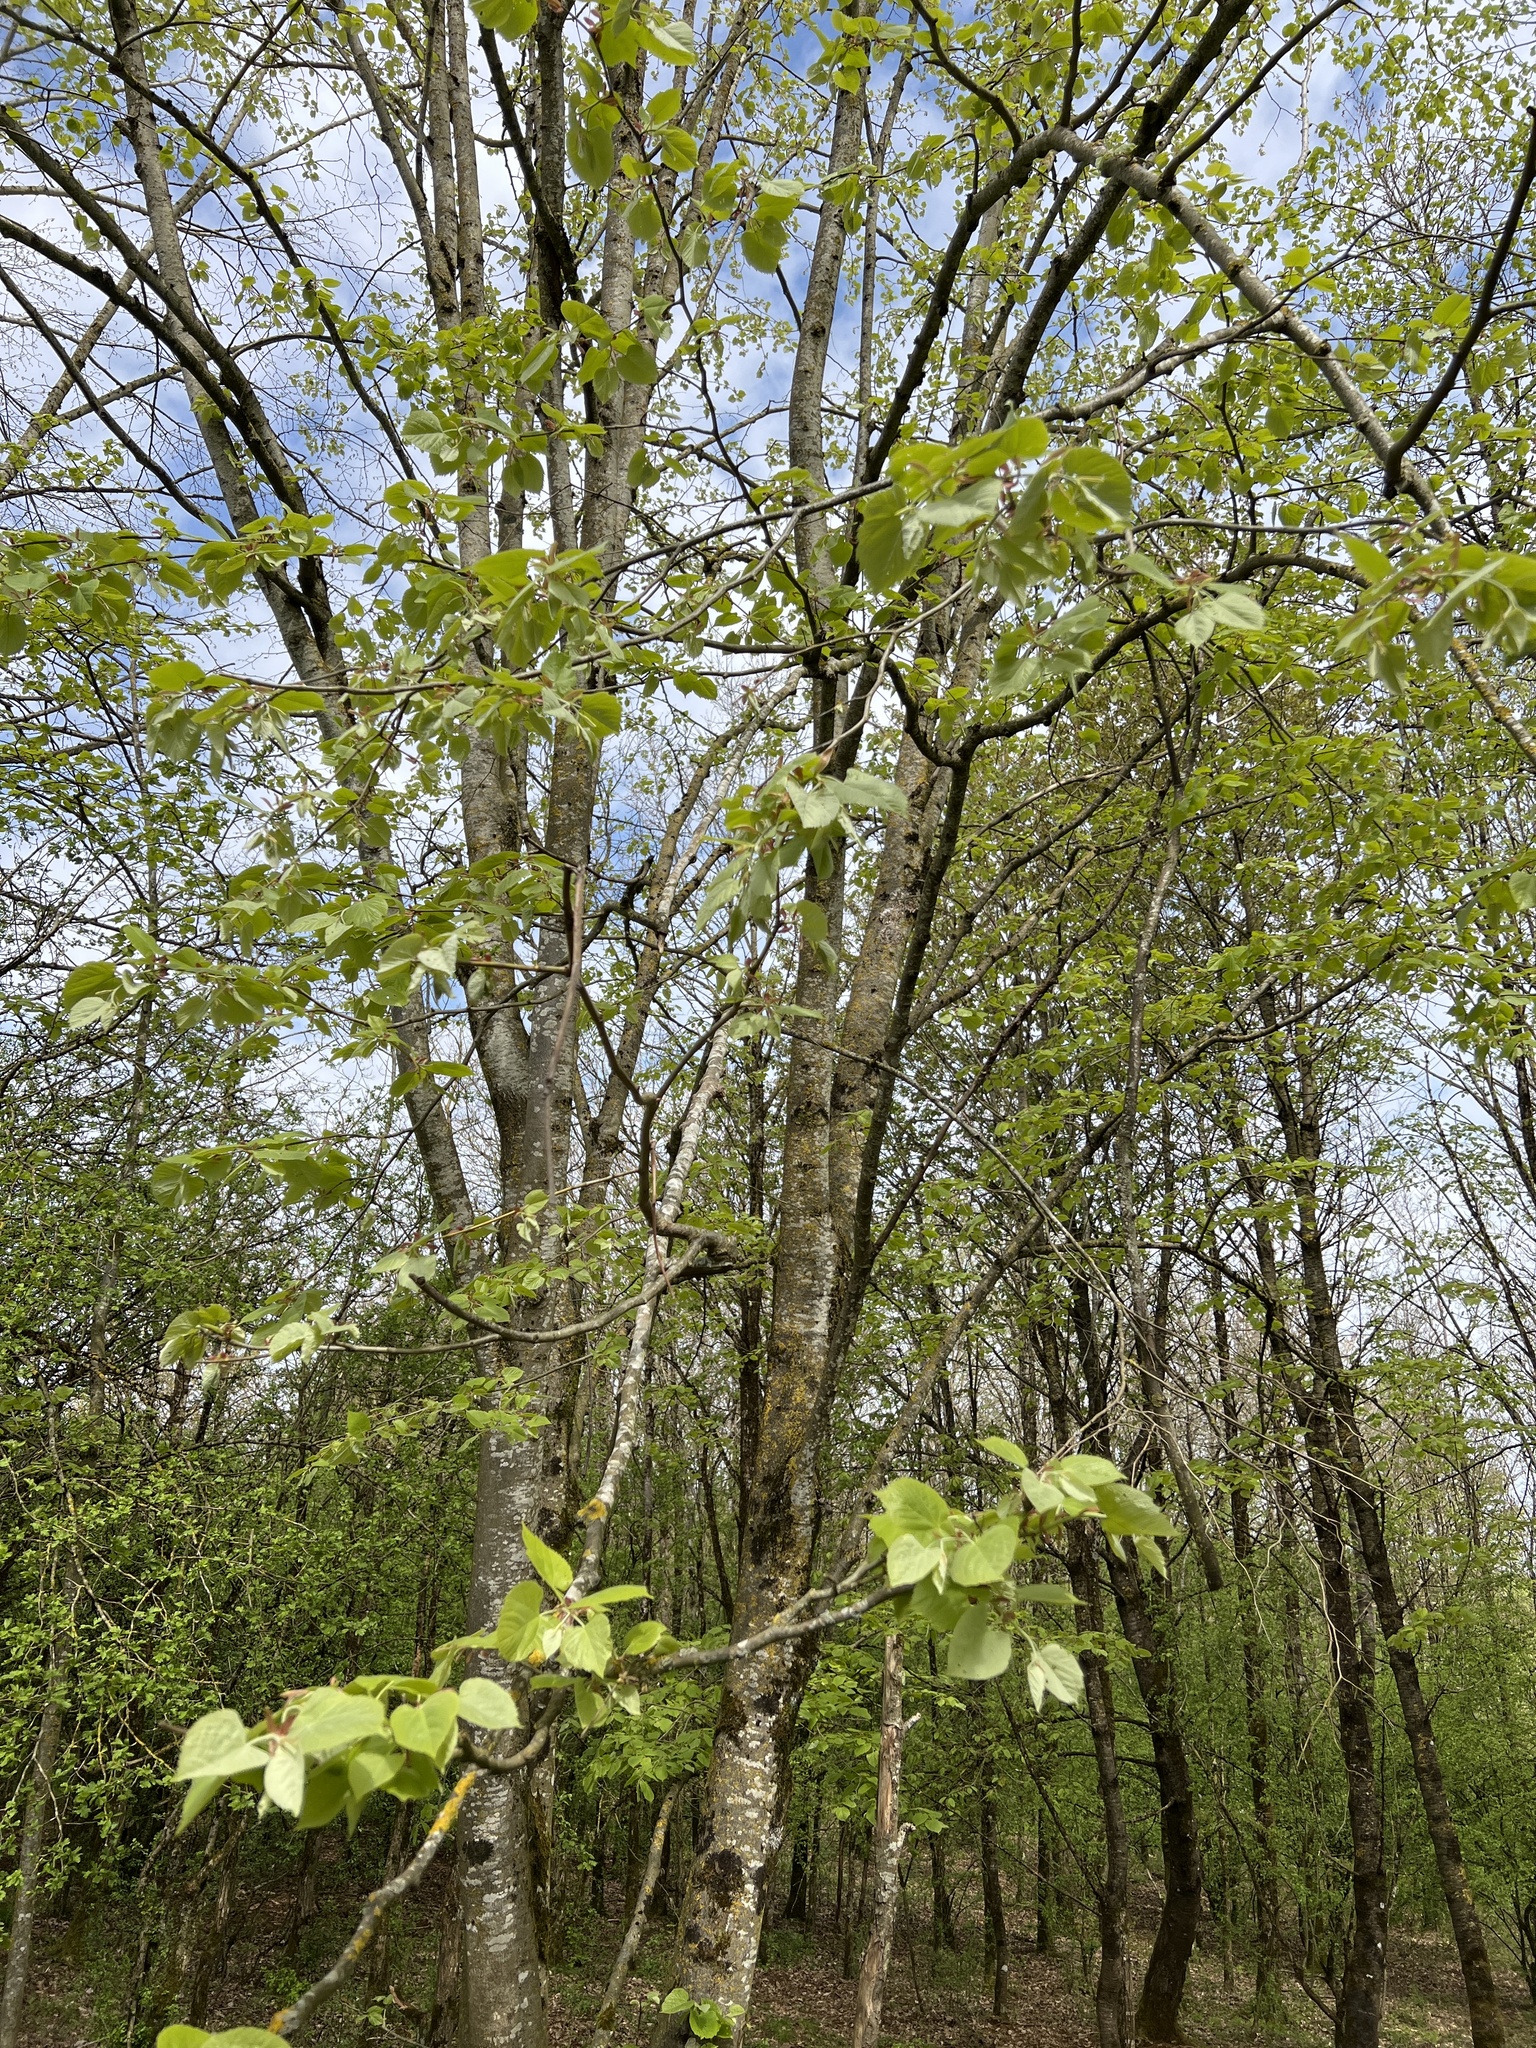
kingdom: Plantae
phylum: Tracheophyta
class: Magnoliopsida
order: Malvales
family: Malvaceae
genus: Tilia
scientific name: Tilia platyphyllos
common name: Large-leaved lime
